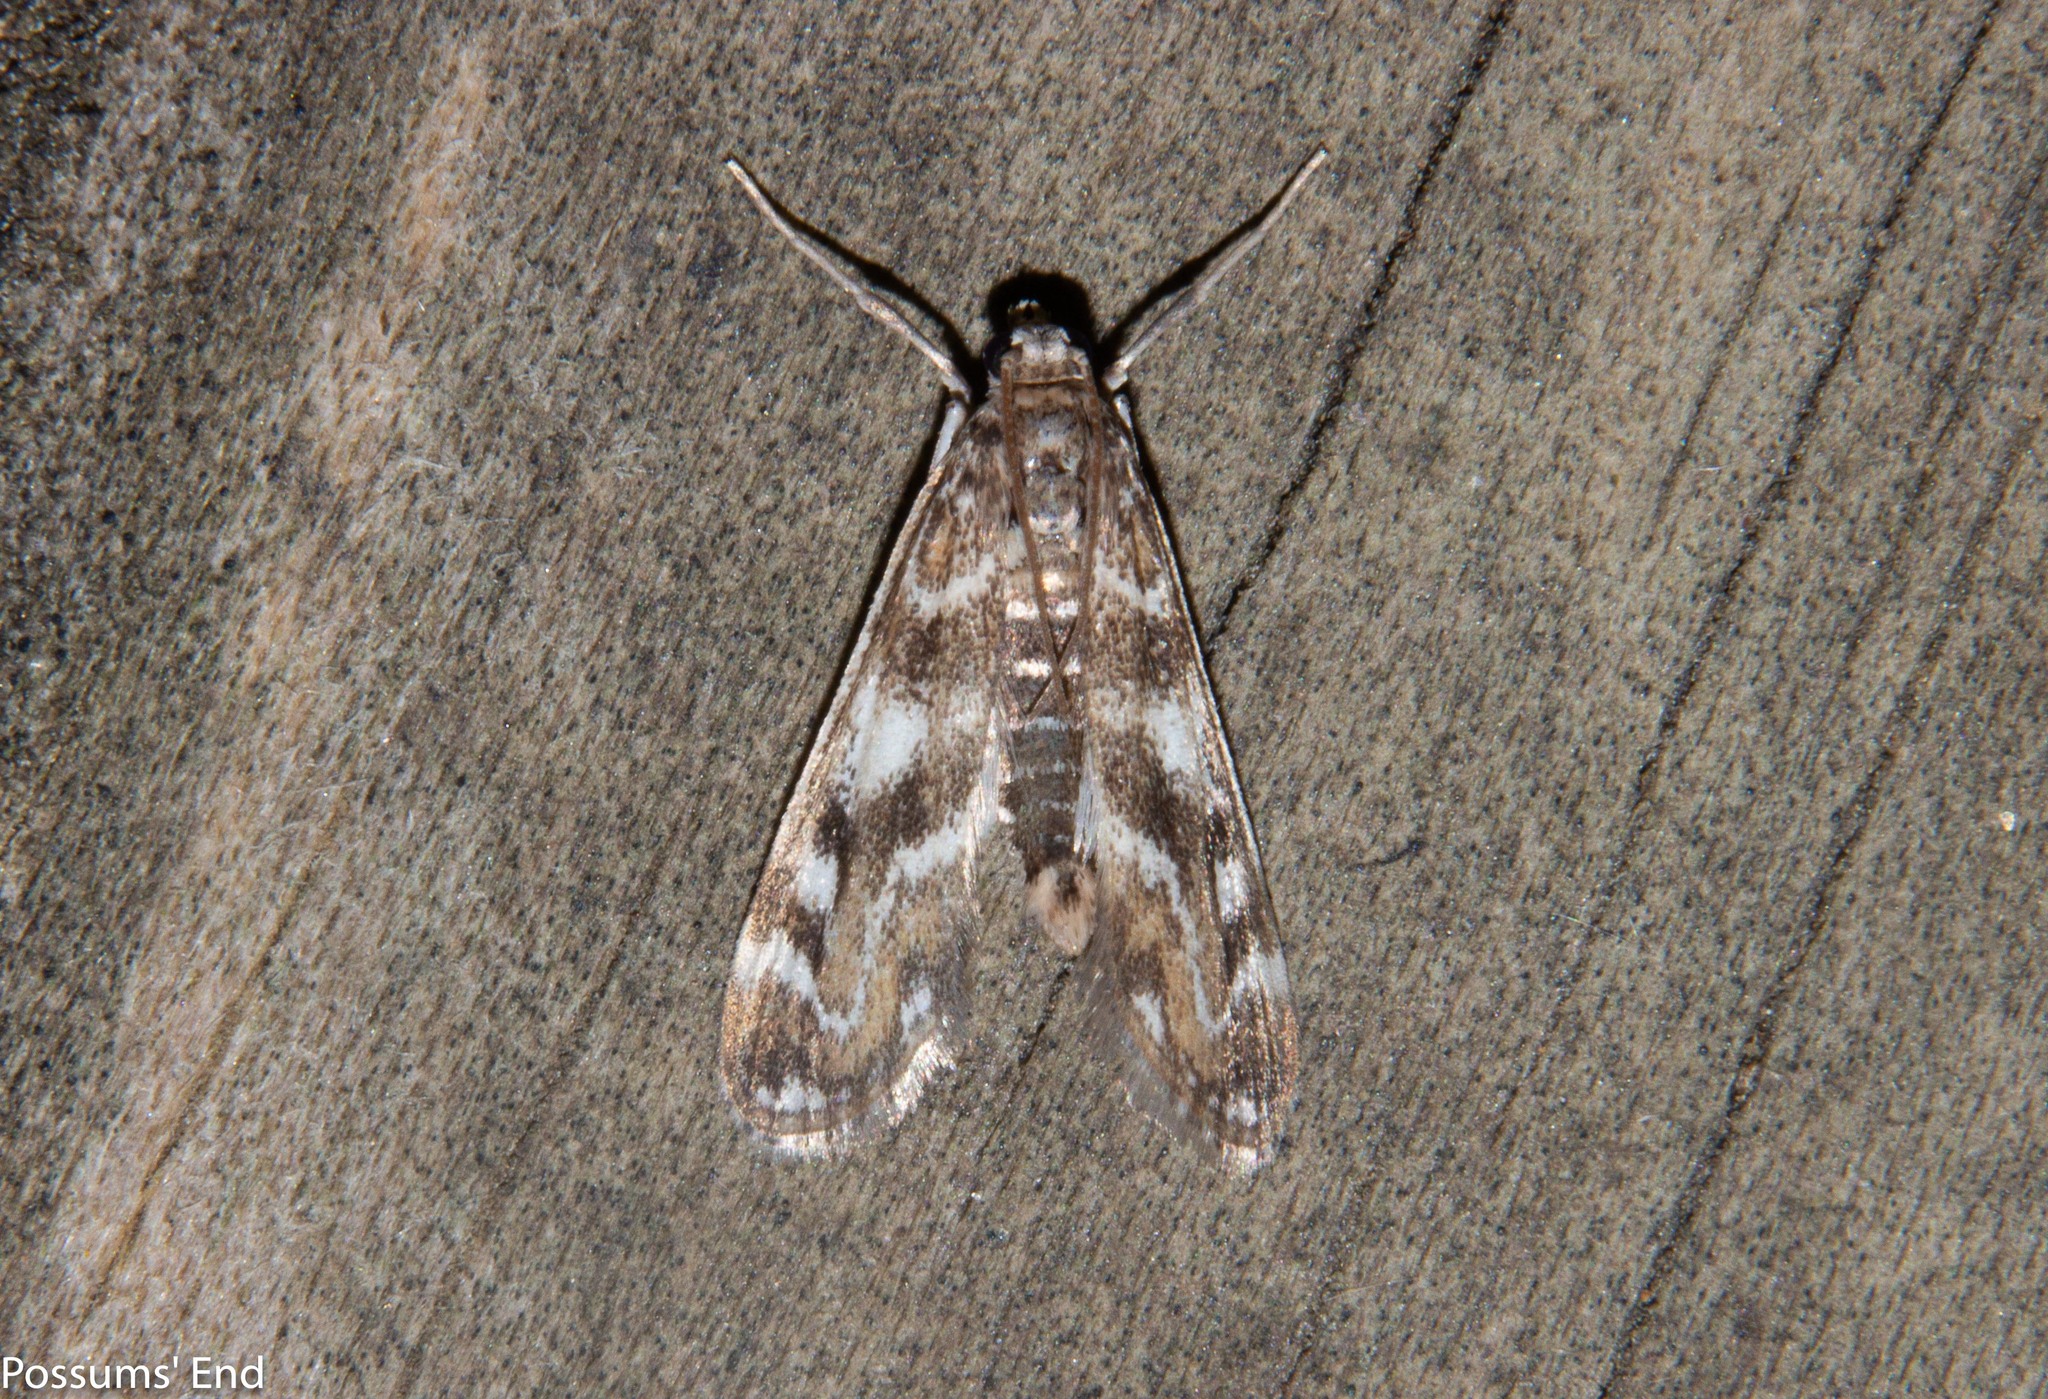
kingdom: Animalia
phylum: Arthropoda
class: Insecta
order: Lepidoptera
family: Crambidae
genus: Hygraula
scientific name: Hygraula nitens
